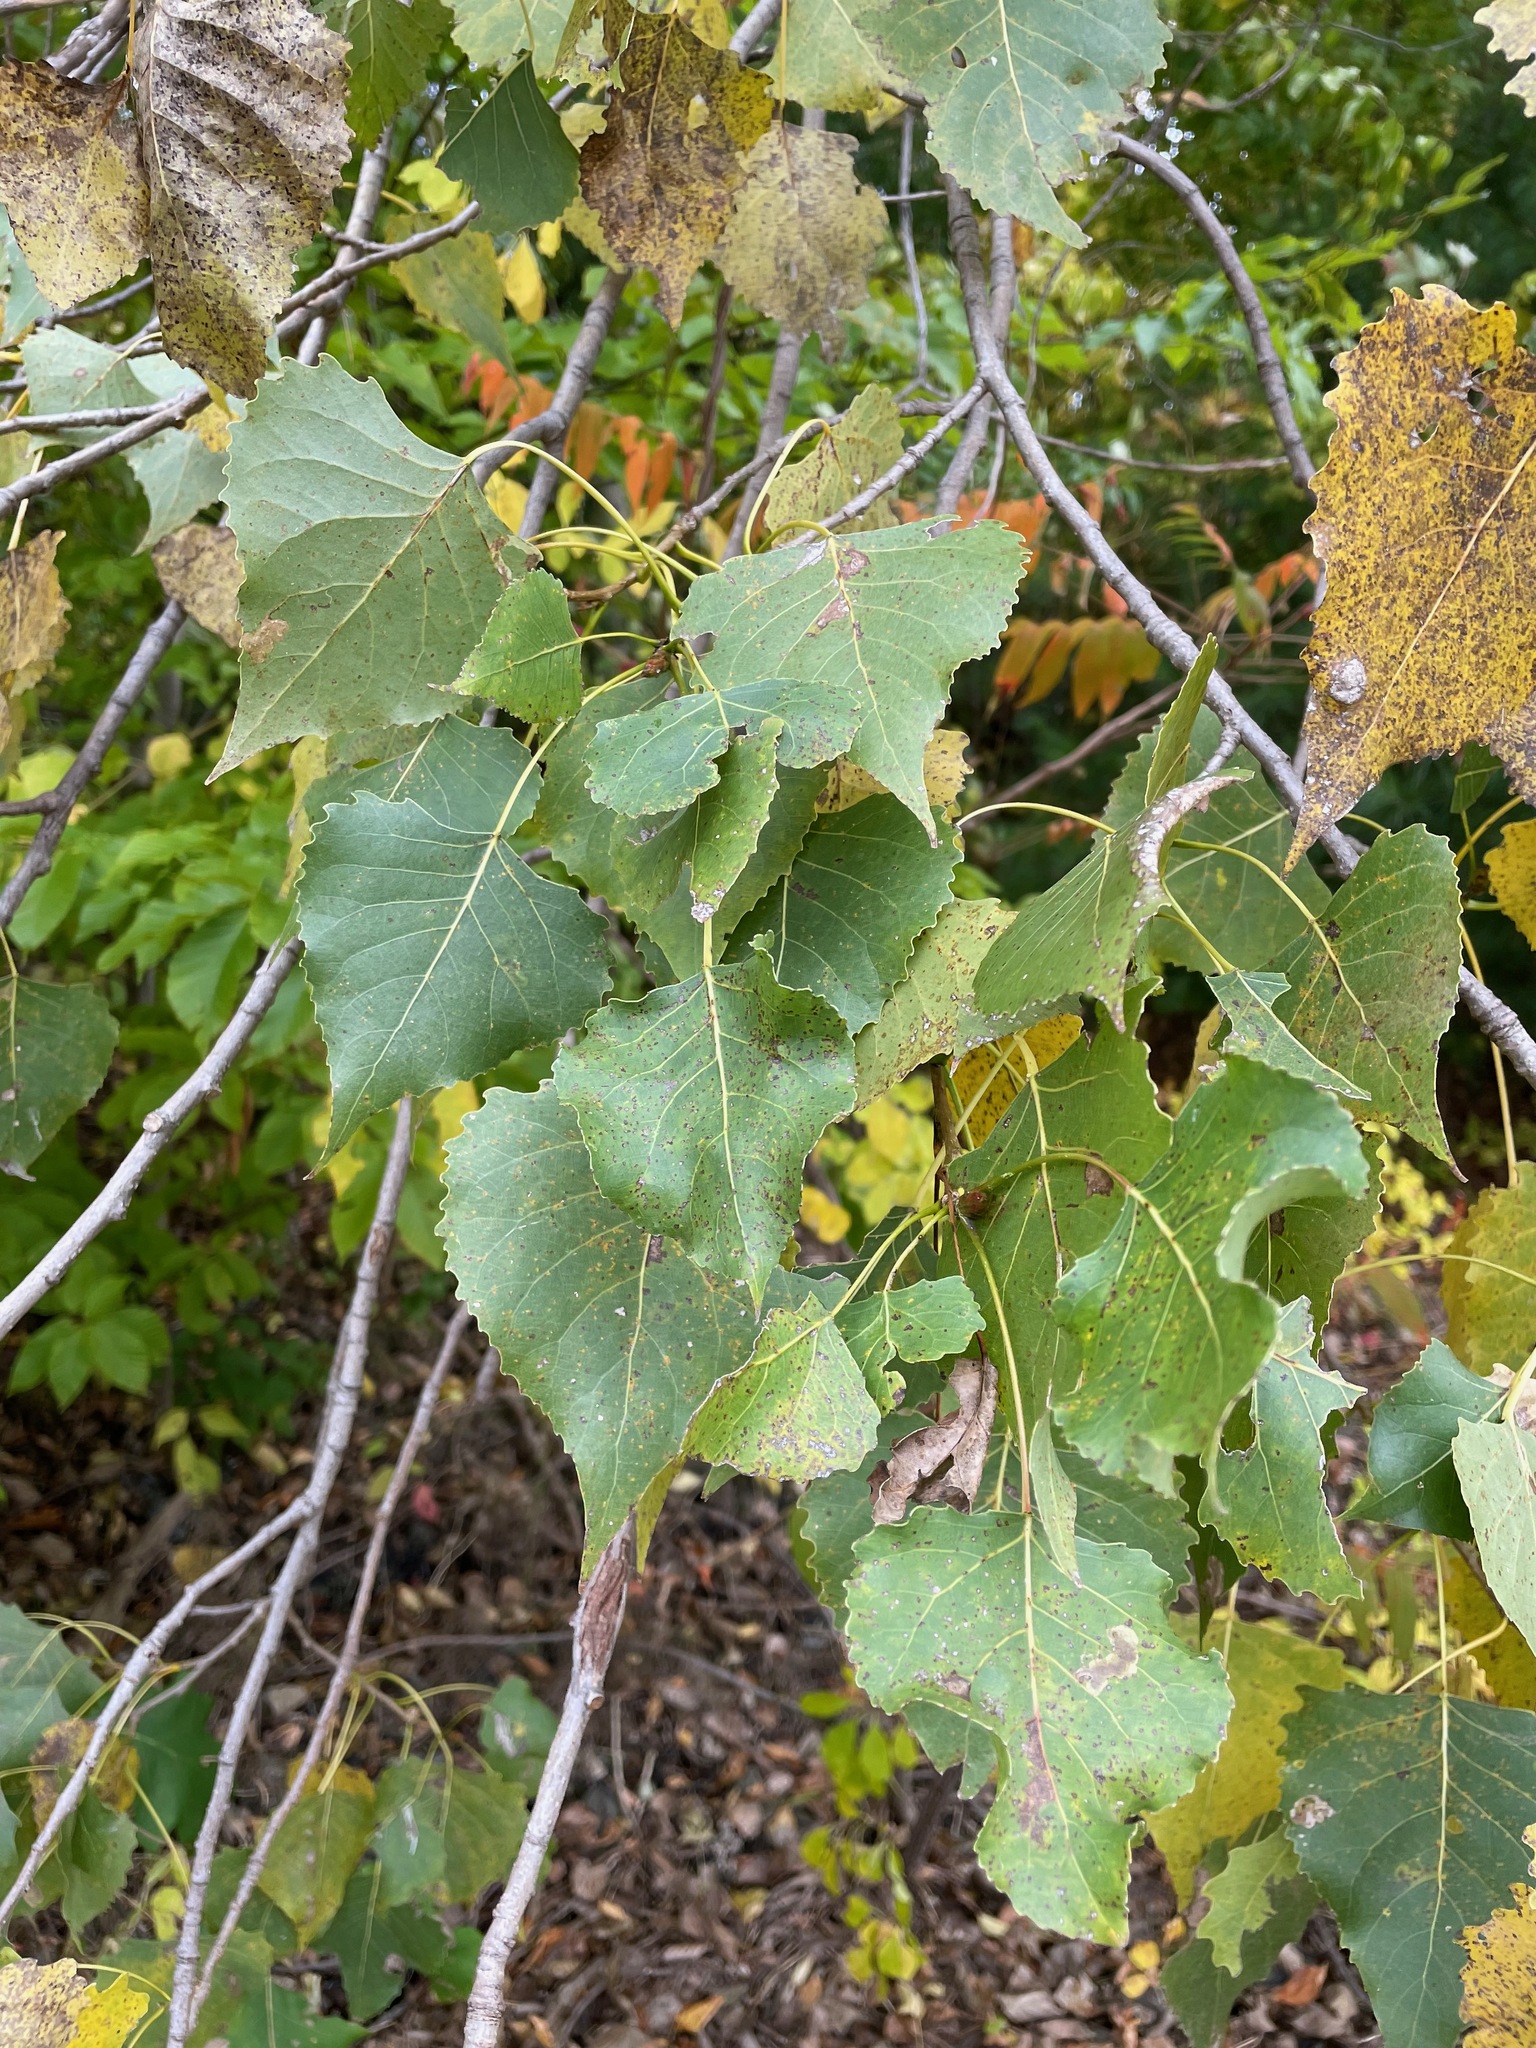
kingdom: Plantae
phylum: Tracheophyta
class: Magnoliopsida
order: Malpighiales
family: Salicaceae
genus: Populus
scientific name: Populus deltoides
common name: Eastern cottonwood
